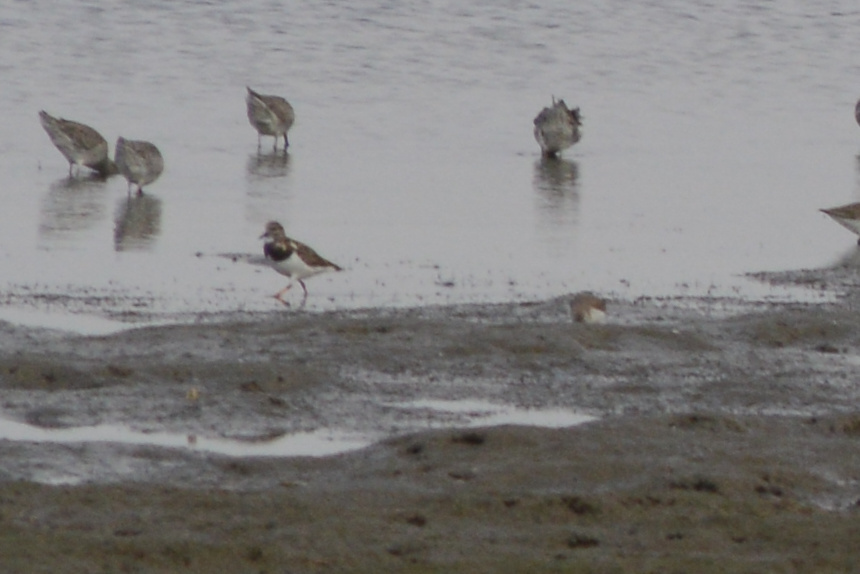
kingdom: Animalia
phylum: Chordata
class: Aves
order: Charadriiformes
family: Scolopacidae
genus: Arenaria
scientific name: Arenaria interpres
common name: Ruddy turnstone
